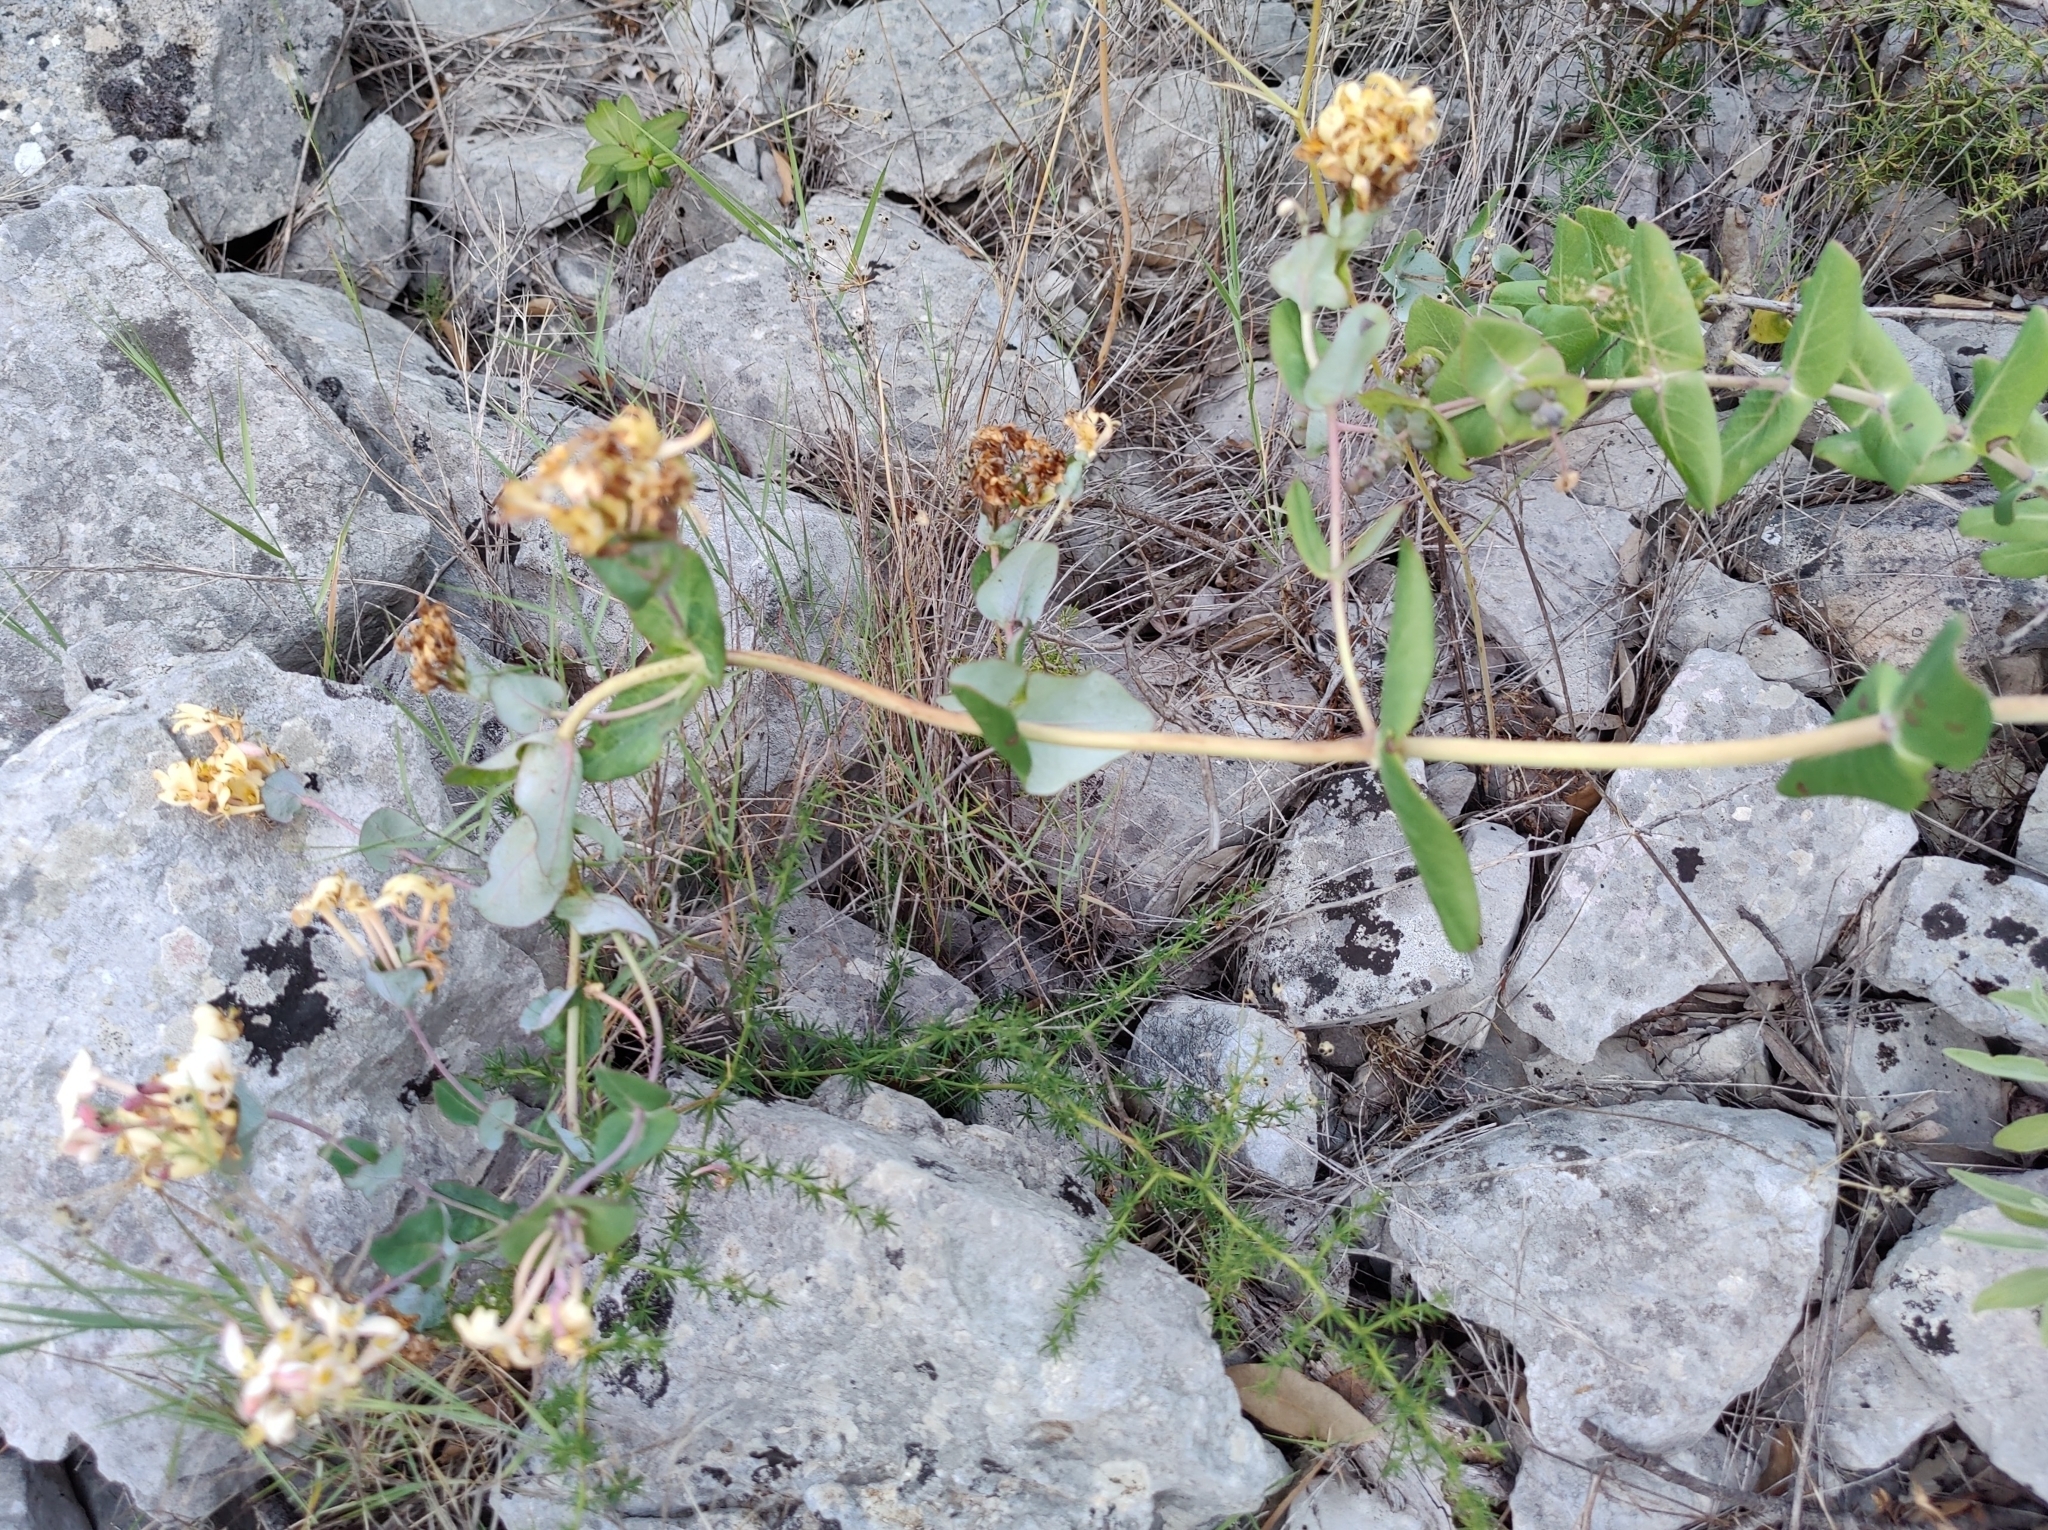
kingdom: Plantae
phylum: Tracheophyta
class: Magnoliopsida
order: Dipsacales
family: Caprifoliaceae
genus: Lonicera
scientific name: Lonicera implexa
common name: Minorca honeysuckle
